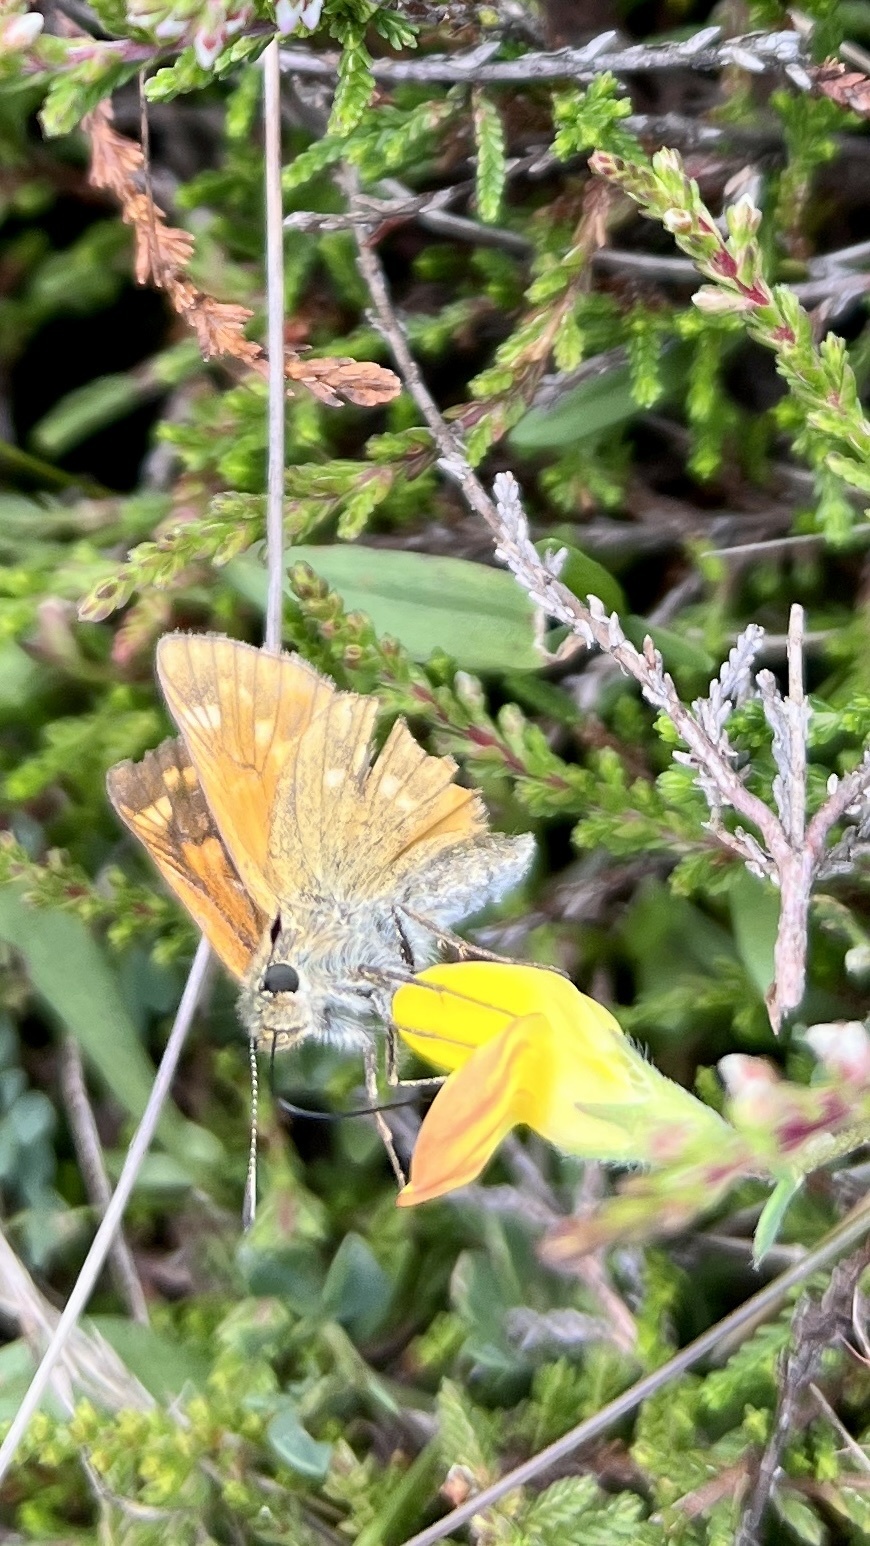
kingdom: Animalia
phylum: Arthropoda
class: Insecta
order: Lepidoptera
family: Hesperiidae
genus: Ochlodes
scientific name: Ochlodes venata
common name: Large skipper
